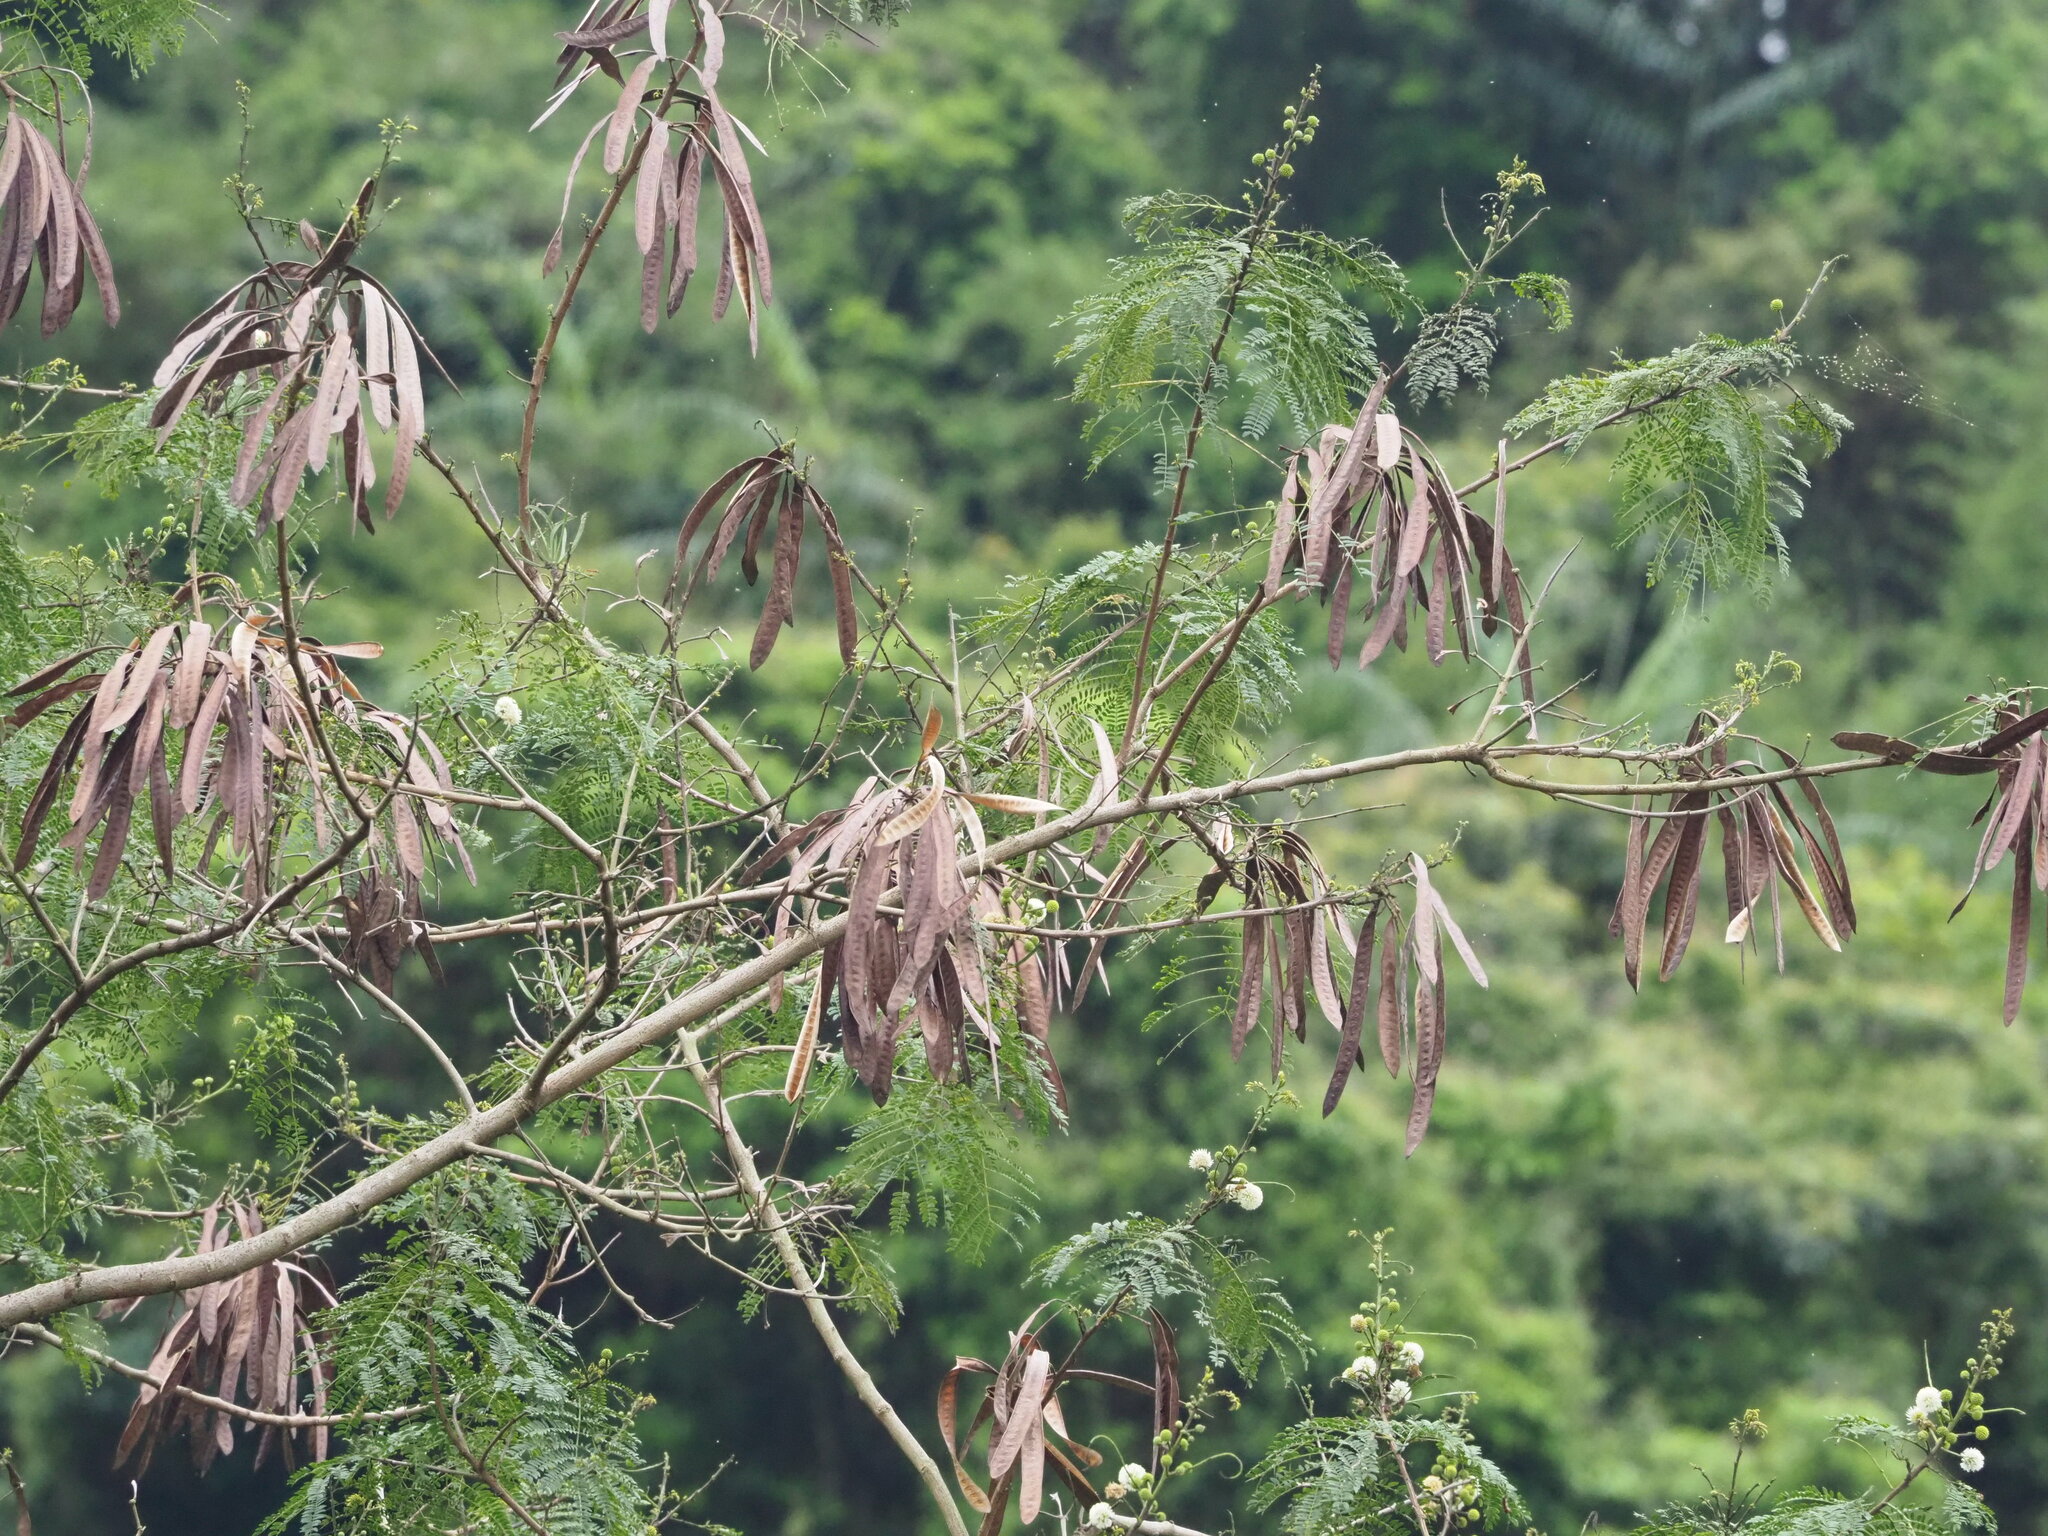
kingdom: Plantae
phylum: Tracheophyta
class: Magnoliopsida
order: Fabales
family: Fabaceae
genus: Leucaena
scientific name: Leucaena leucocephala
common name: White leadtree
